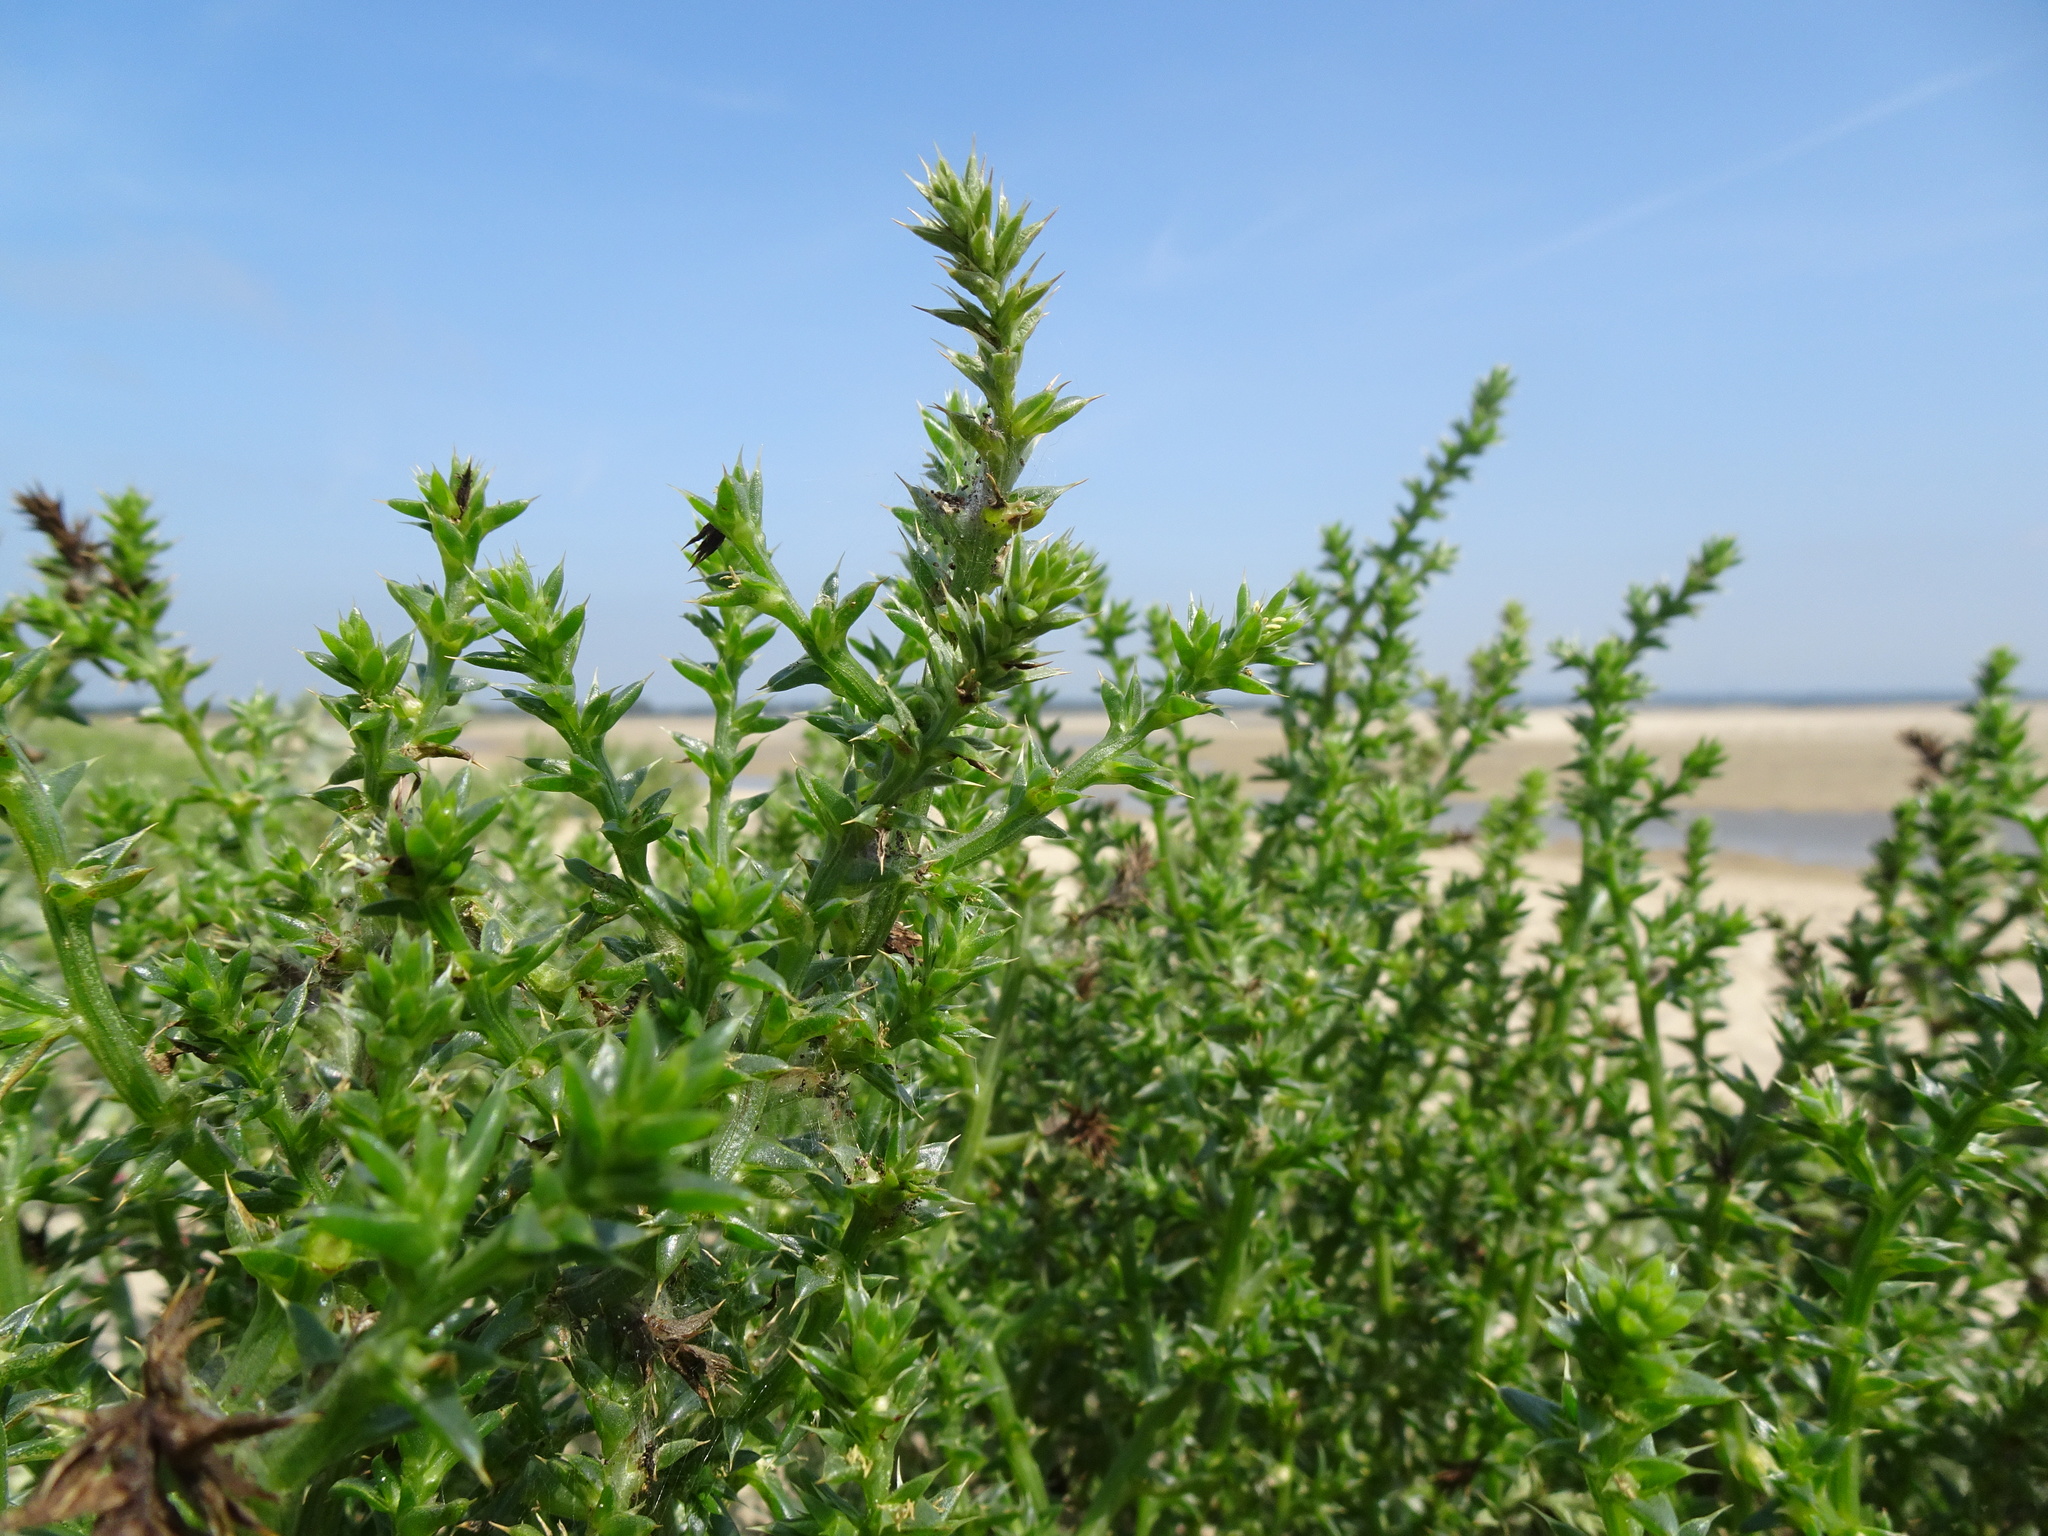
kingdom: Plantae
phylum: Tracheophyta
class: Magnoliopsida
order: Caryophyllales
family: Amaranthaceae
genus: Salsola
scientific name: Salsola kali
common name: Saltwort
